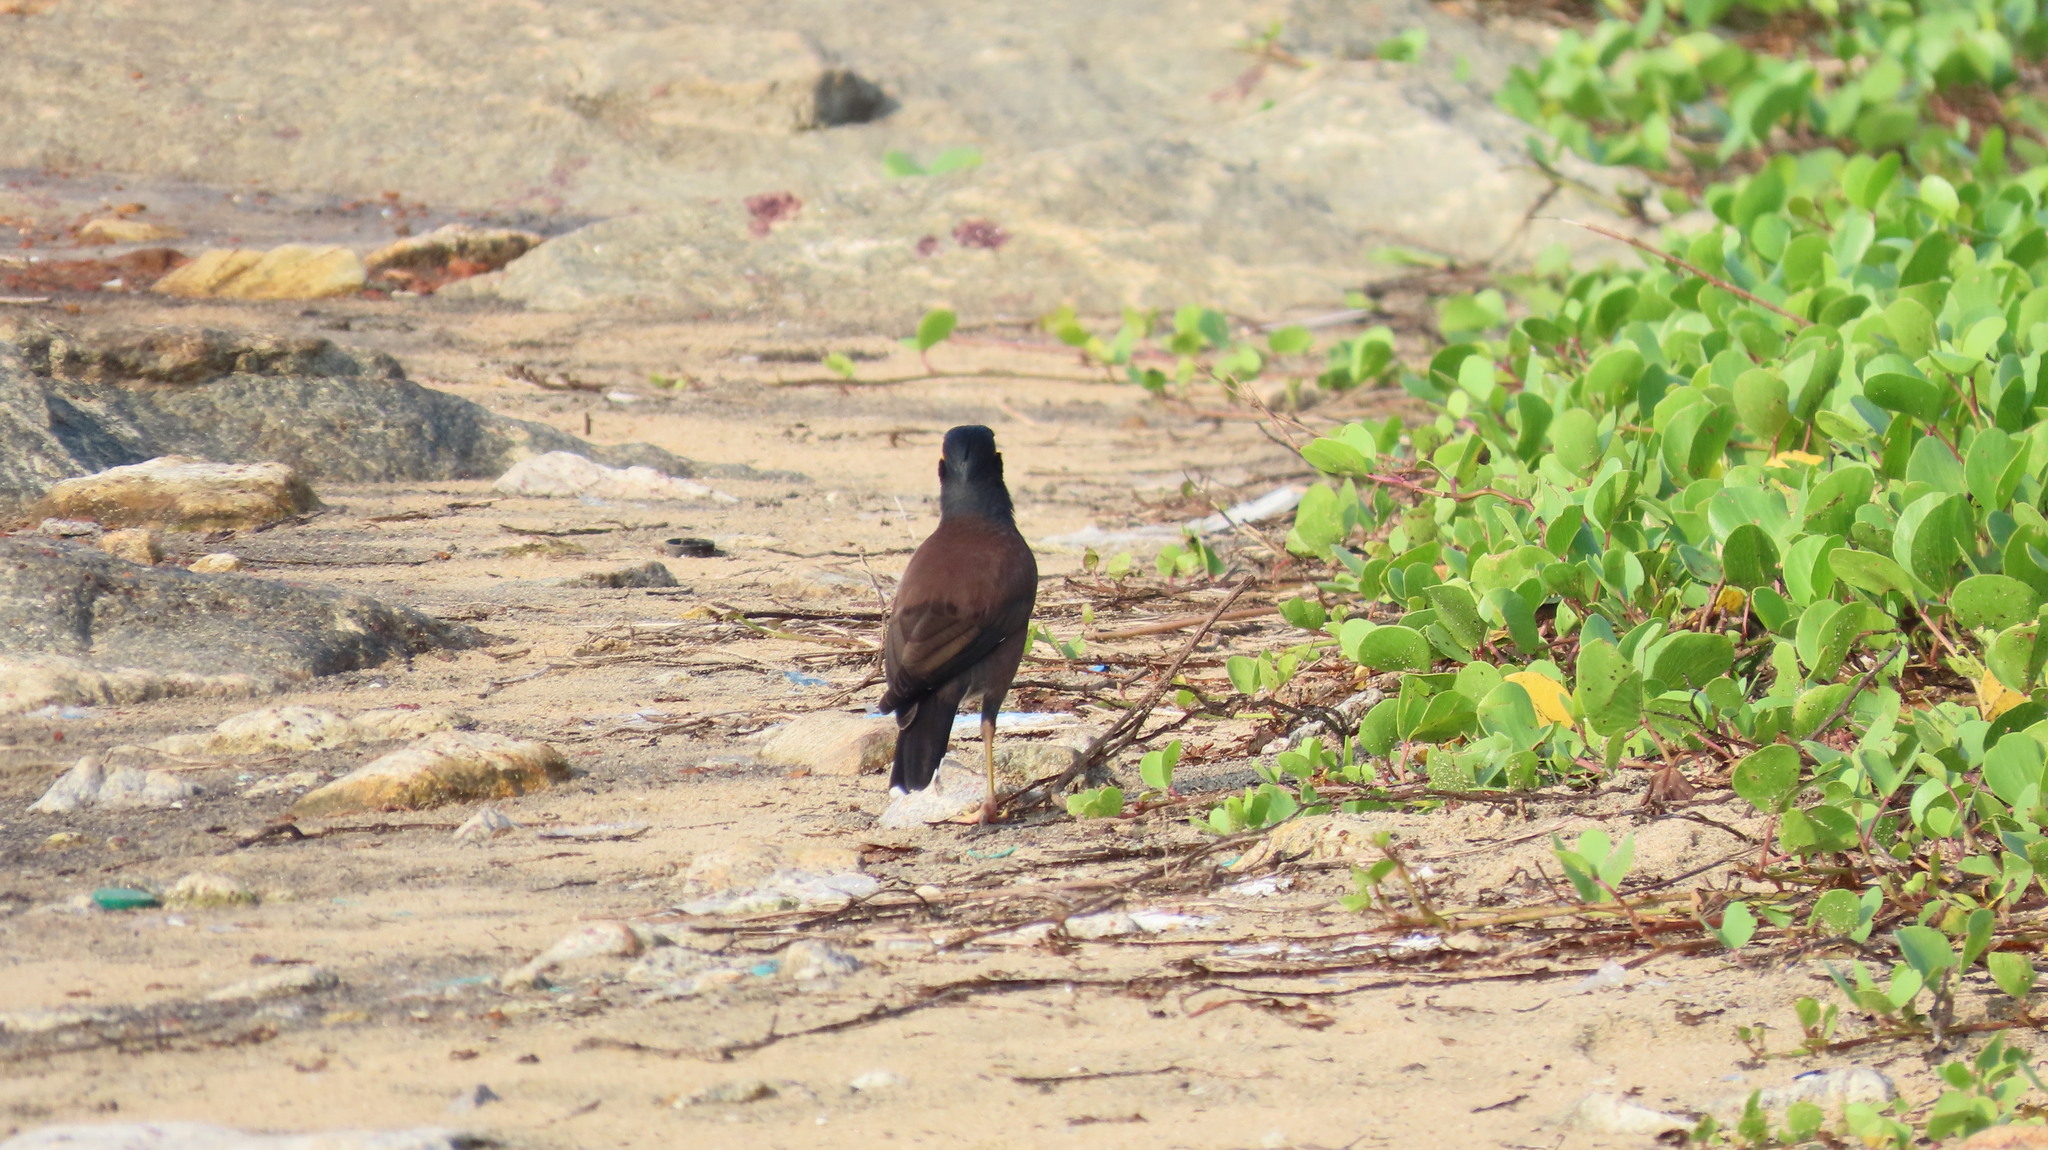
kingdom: Animalia
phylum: Chordata
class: Aves
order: Passeriformes
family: Sturnidae
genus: Acridotheres
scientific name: Acridotheres tristis
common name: Common myna
